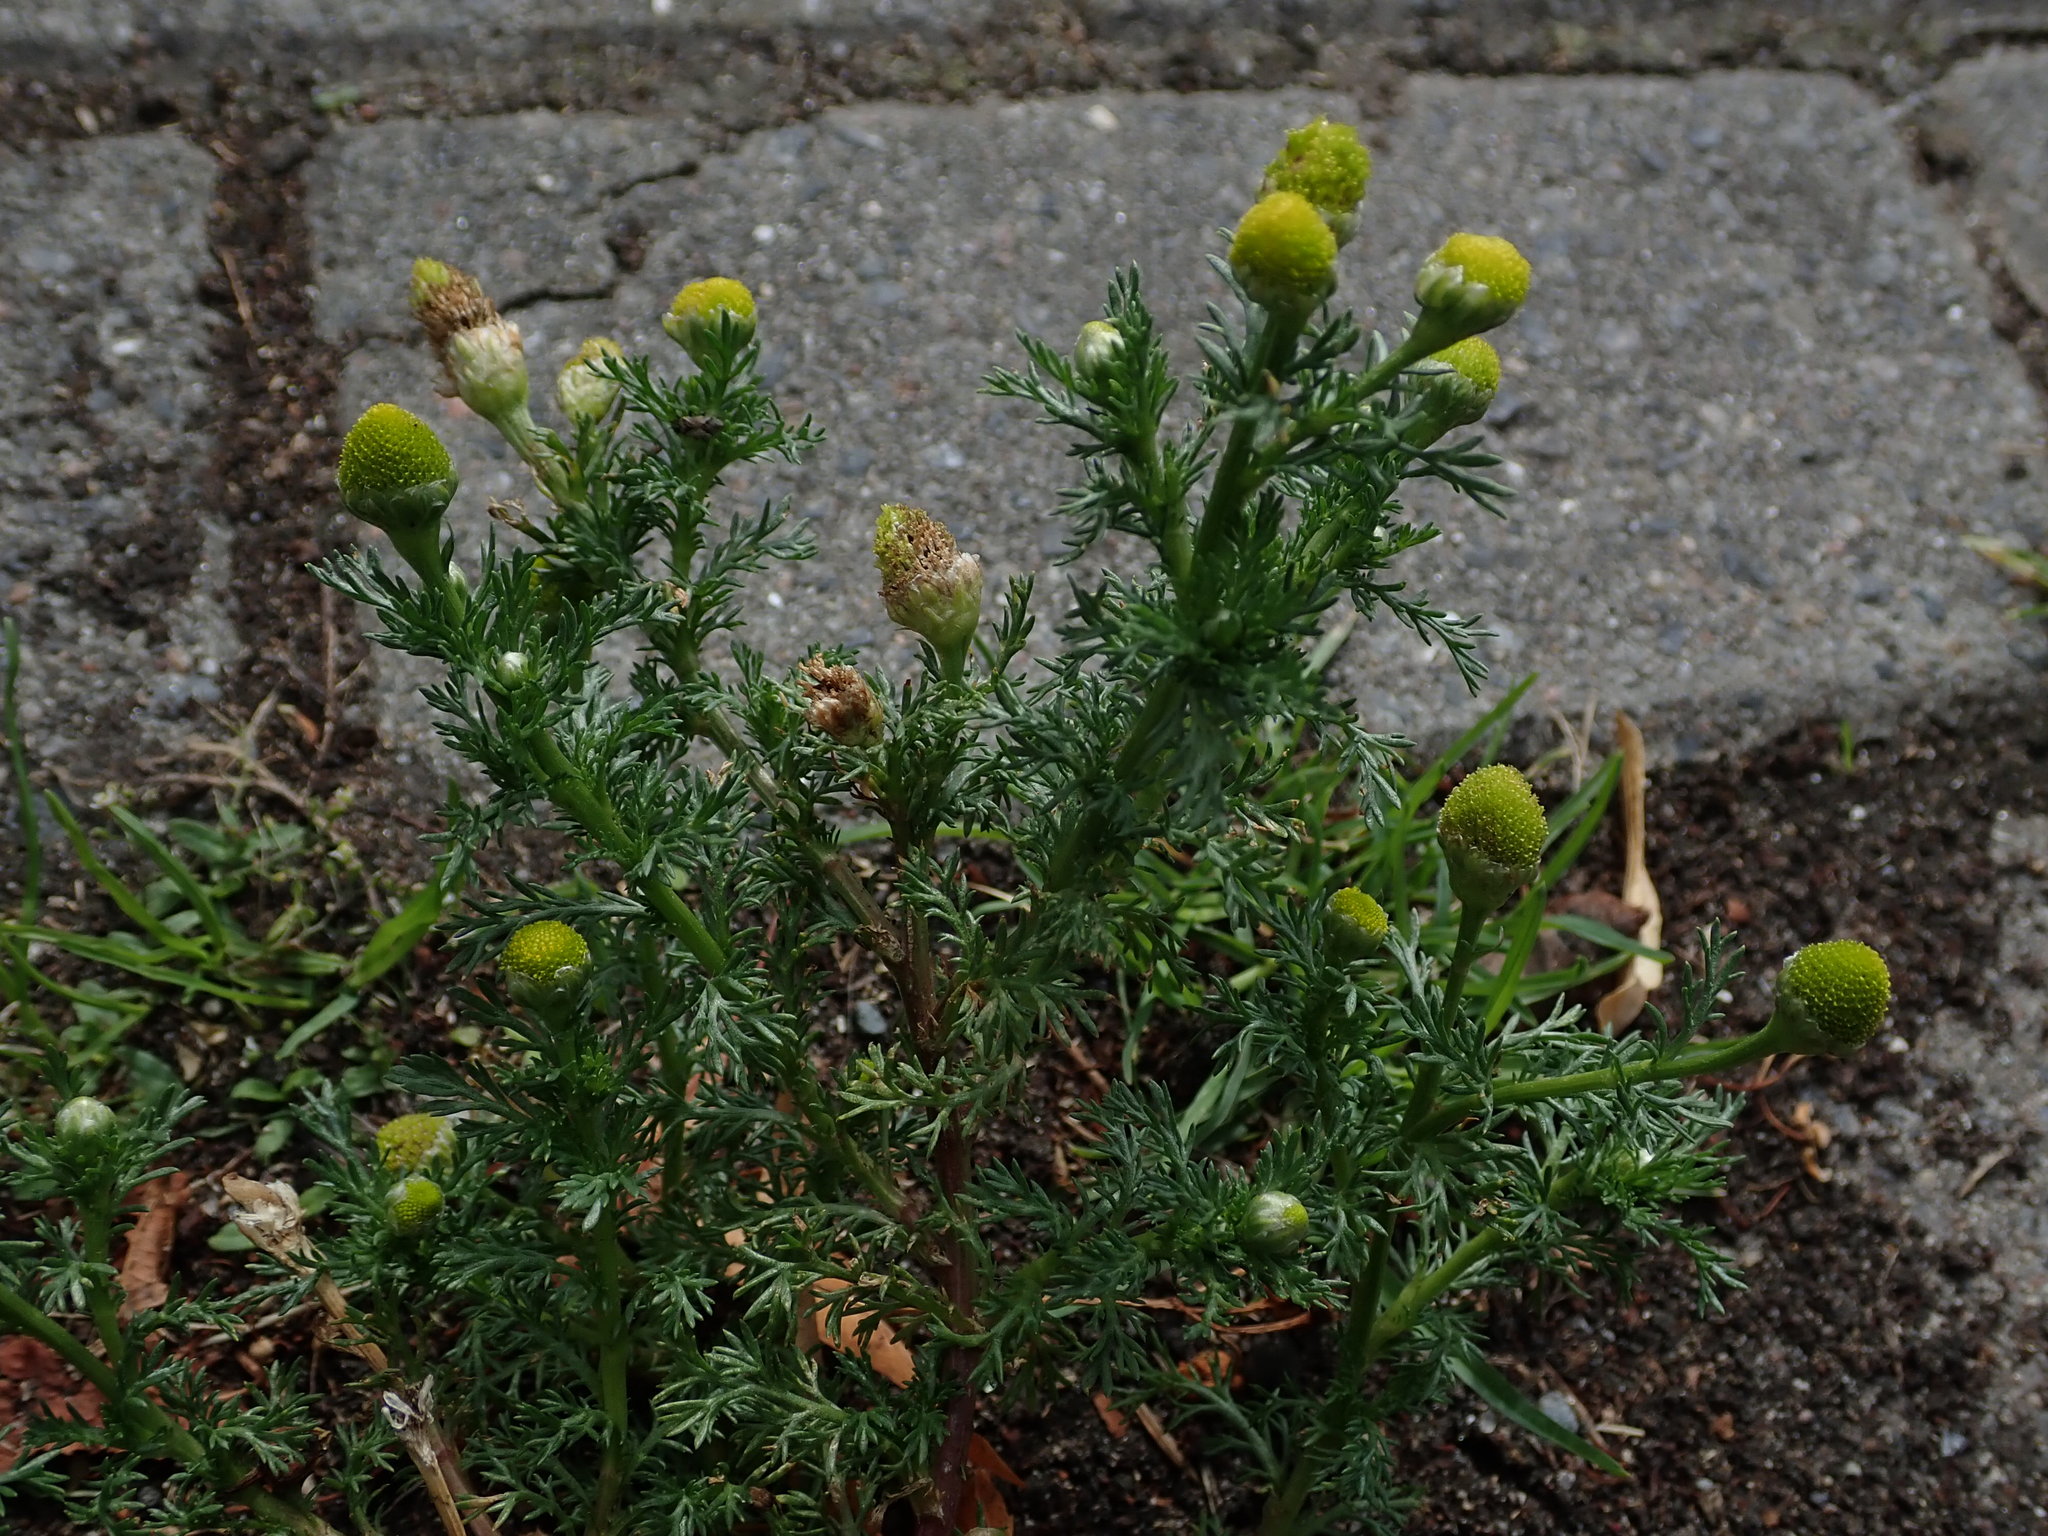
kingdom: Plantae
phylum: Tracheophyta
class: Magnoliopsida
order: Asterales
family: Asteraceae
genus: Matricaria
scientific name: Matricaria discoidea
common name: Disc mayweed
